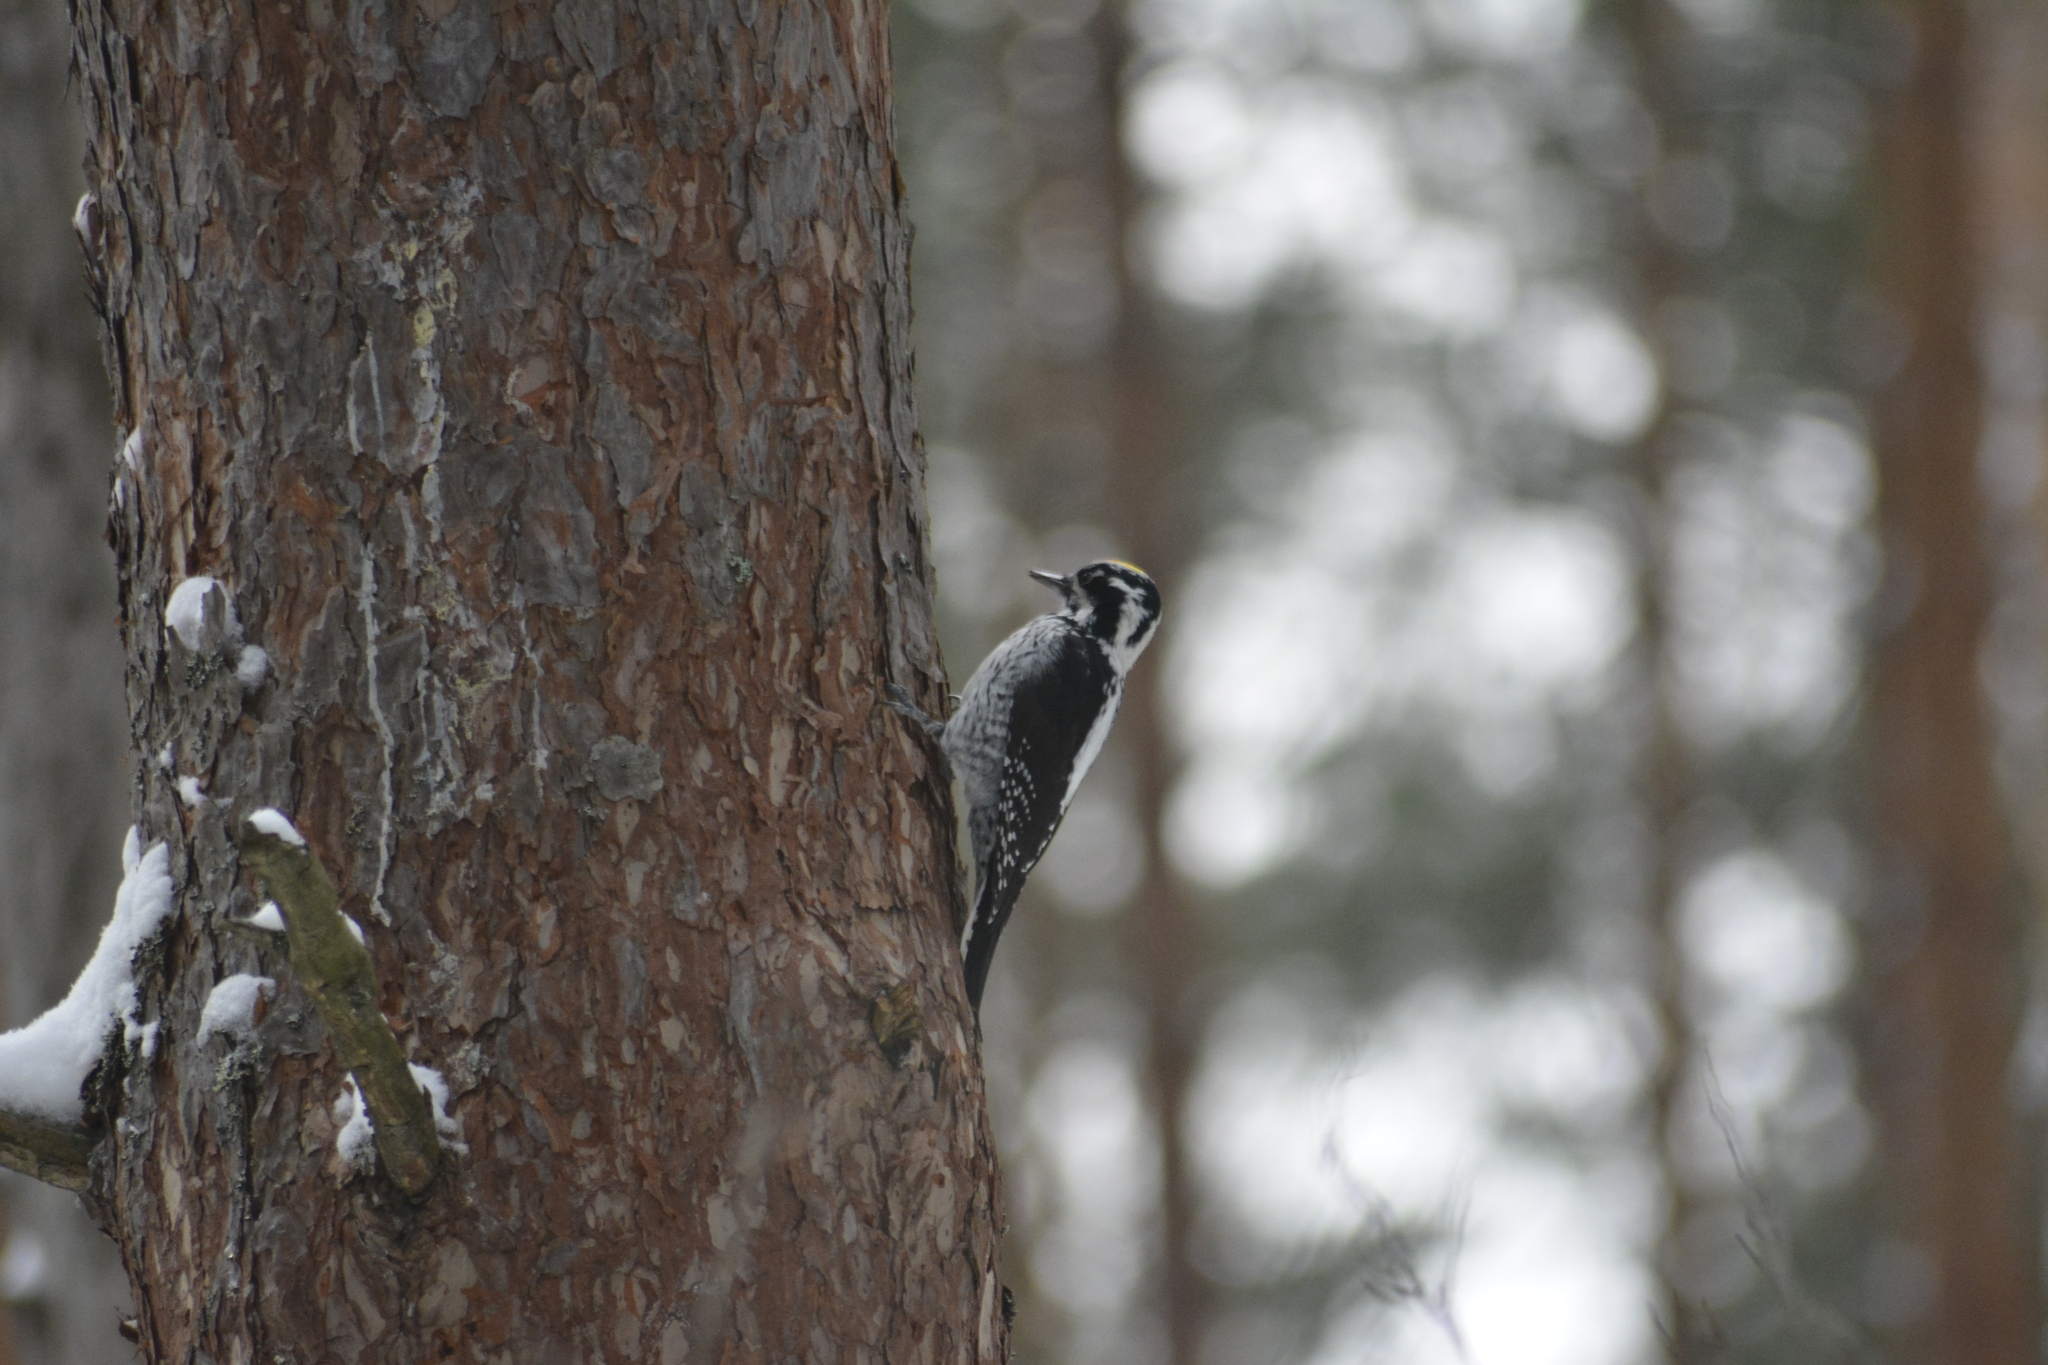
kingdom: Animalia
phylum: Chordata
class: Aves
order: Piciformes
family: Picidae
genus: Picoides
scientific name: Picoides tridactylus
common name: Eurasian three-toed woodpecker
